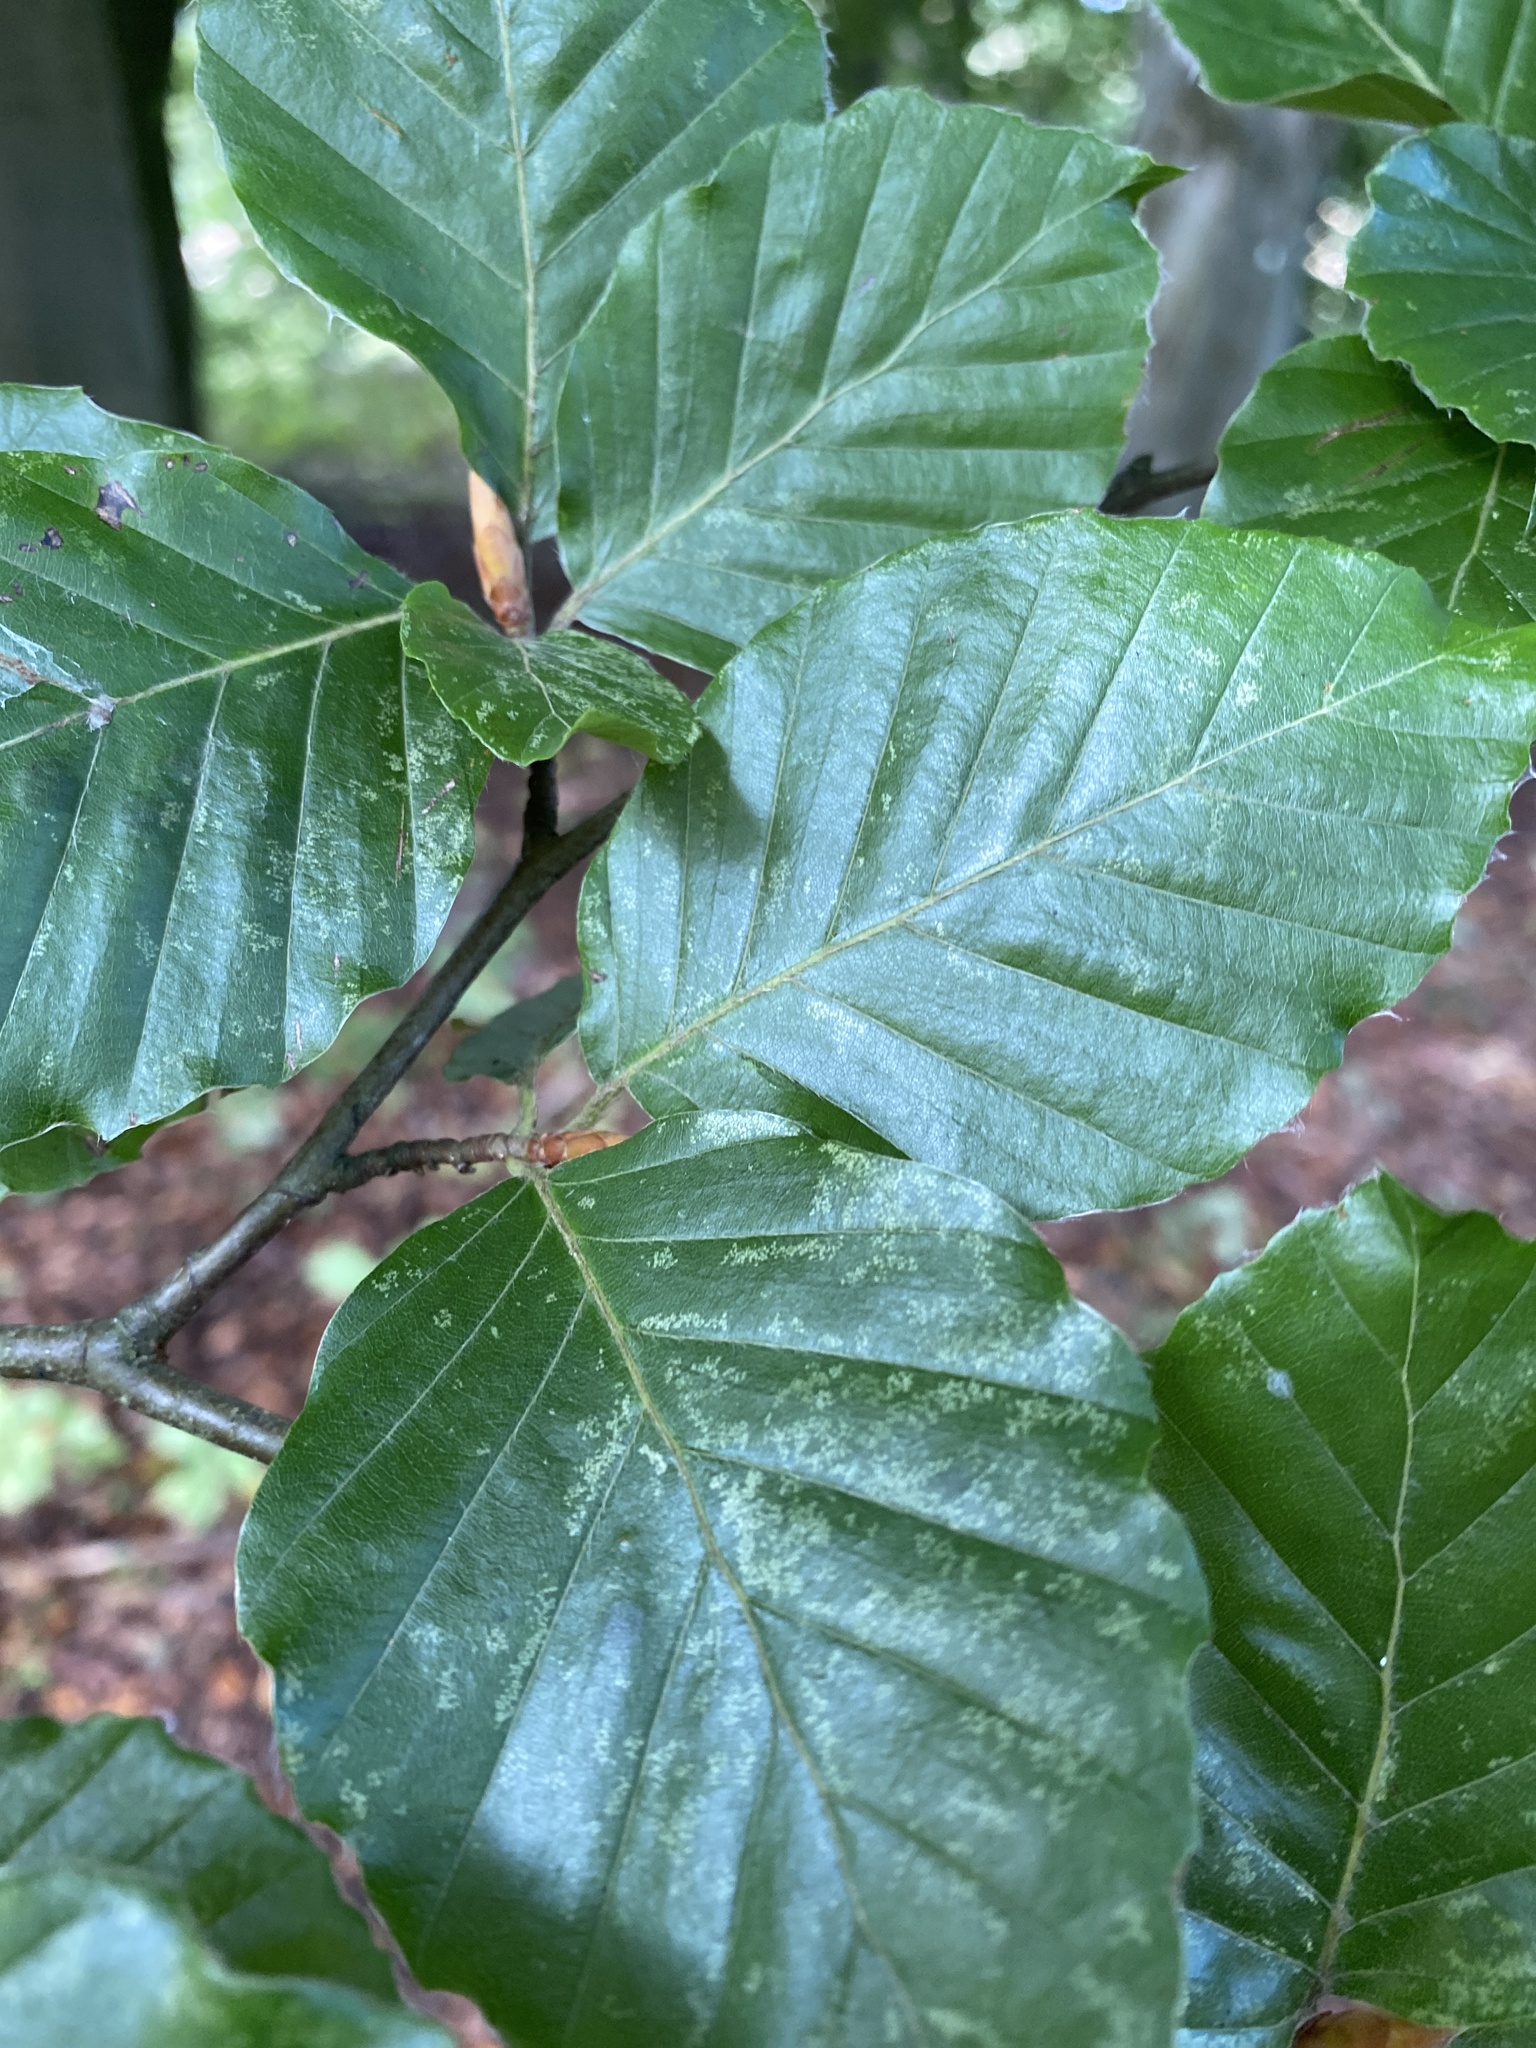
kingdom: Plantae
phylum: Tracheophyta
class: Magnoliopsida
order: Fagales
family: Fagaceae
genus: Fagus
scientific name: Fagus sylvatica
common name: Beech
